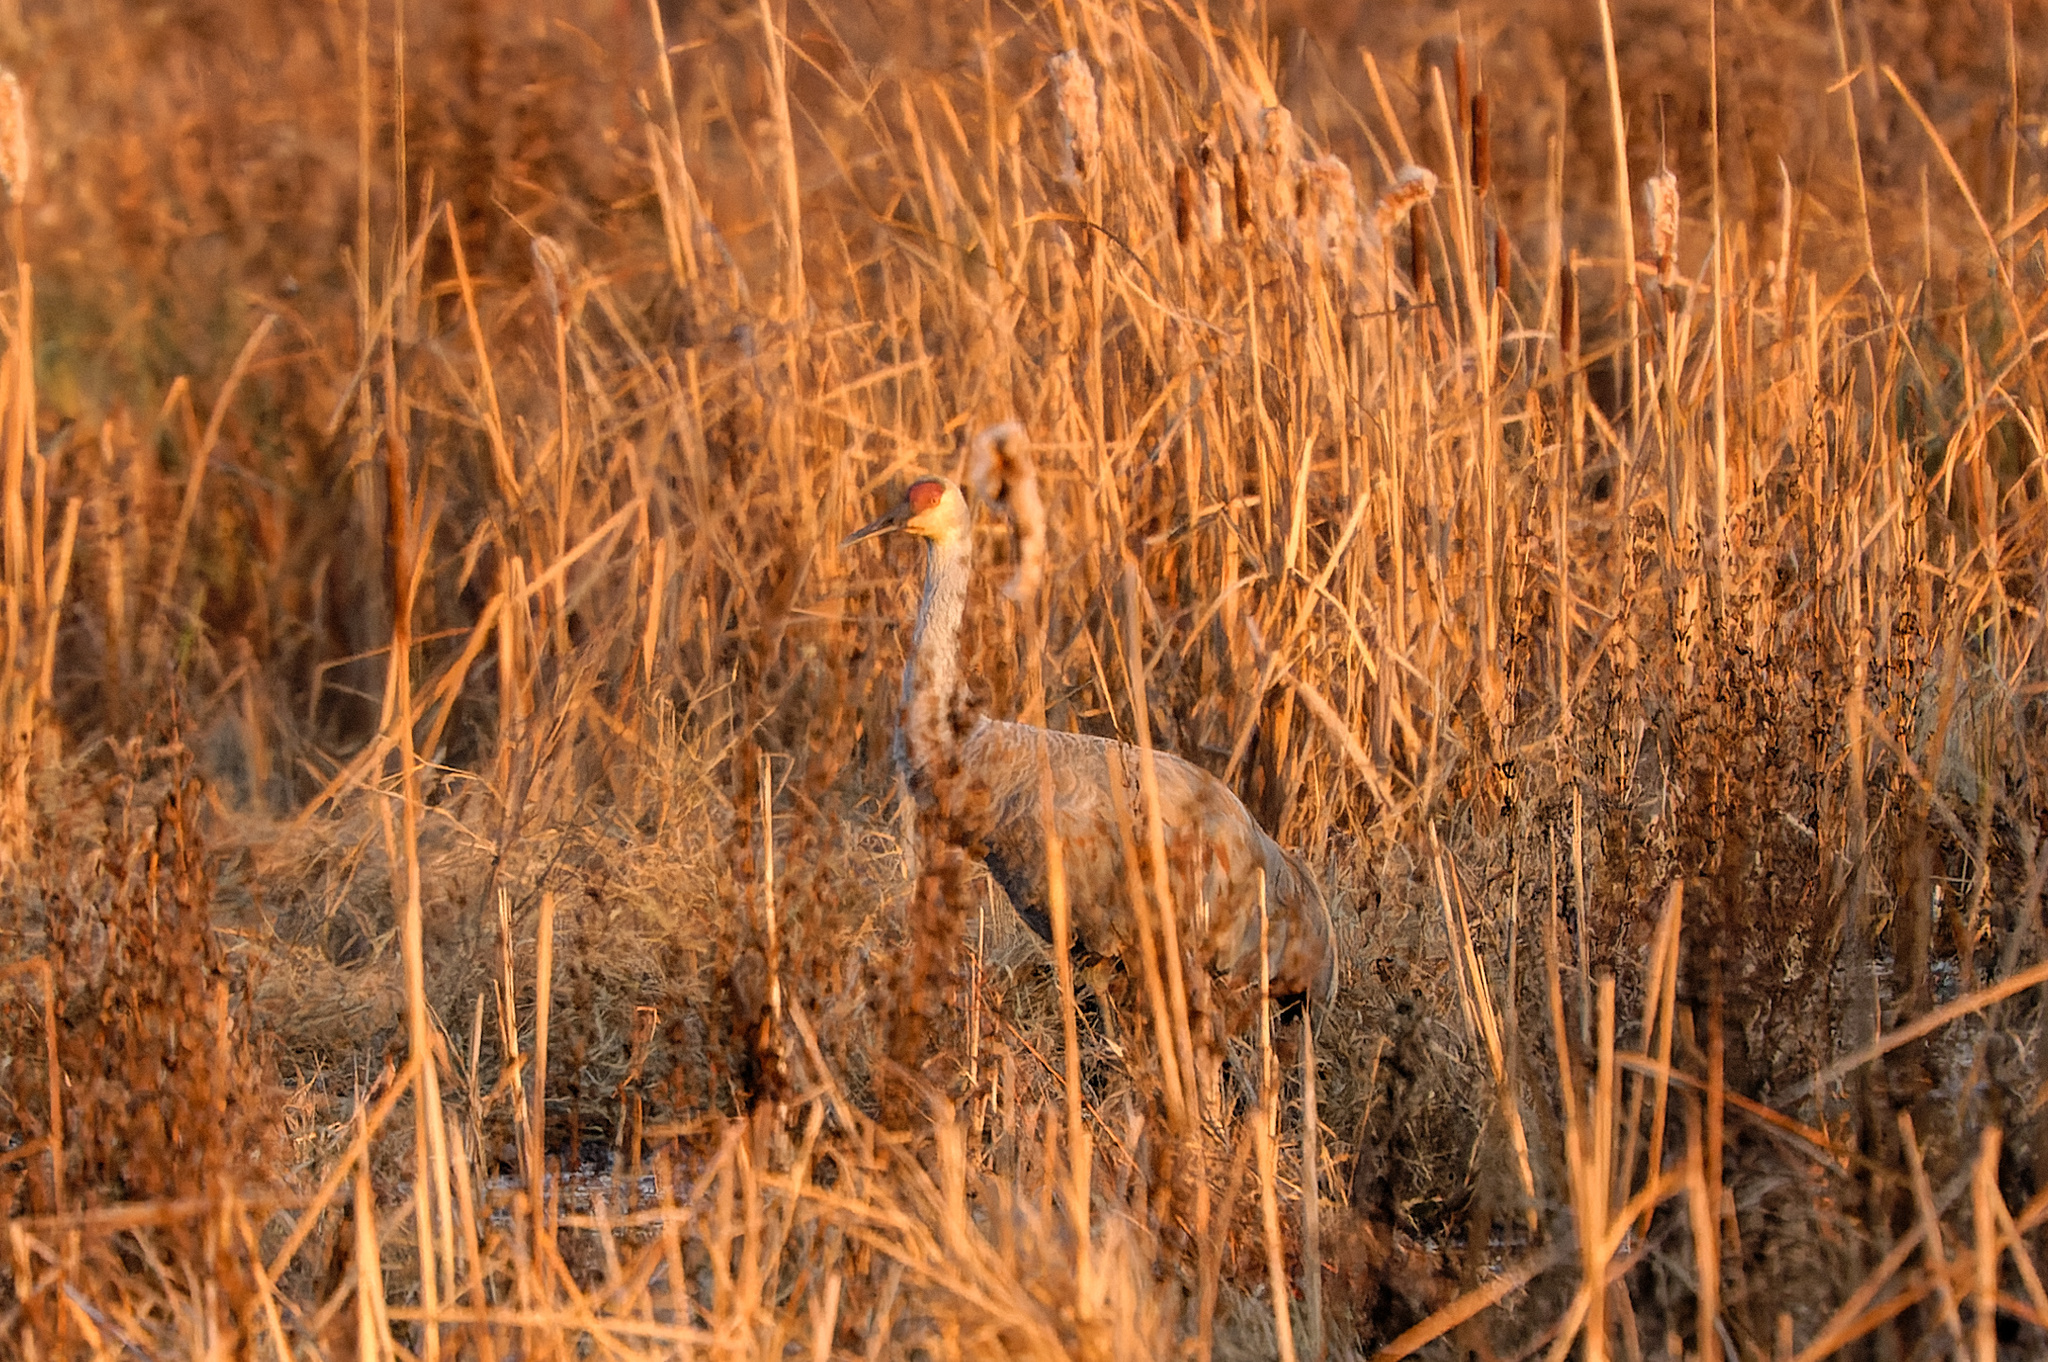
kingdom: Animalia
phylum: Chordata
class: Aves
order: Gruiformes
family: Gruidae
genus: Grus
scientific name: Grus canadensis
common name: Sandhill crane
